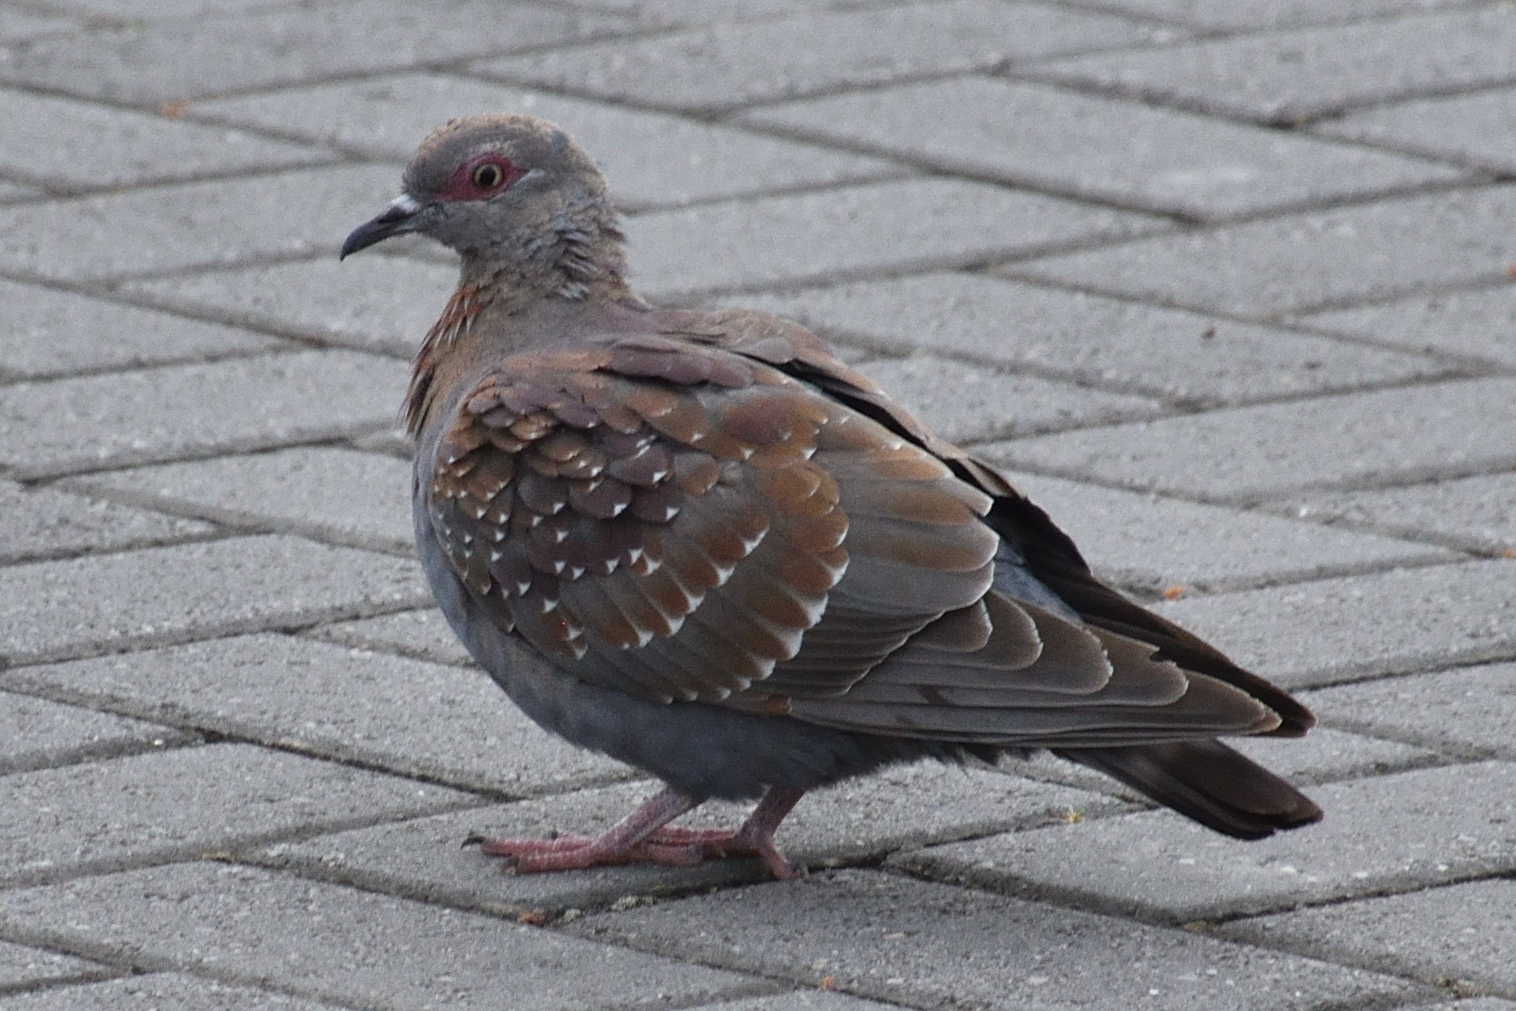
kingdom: Animalia
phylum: Chordata
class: Aves
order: Columbiformes
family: Columbidae
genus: Columba
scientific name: Columba guinea
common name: Speckled pigeon
